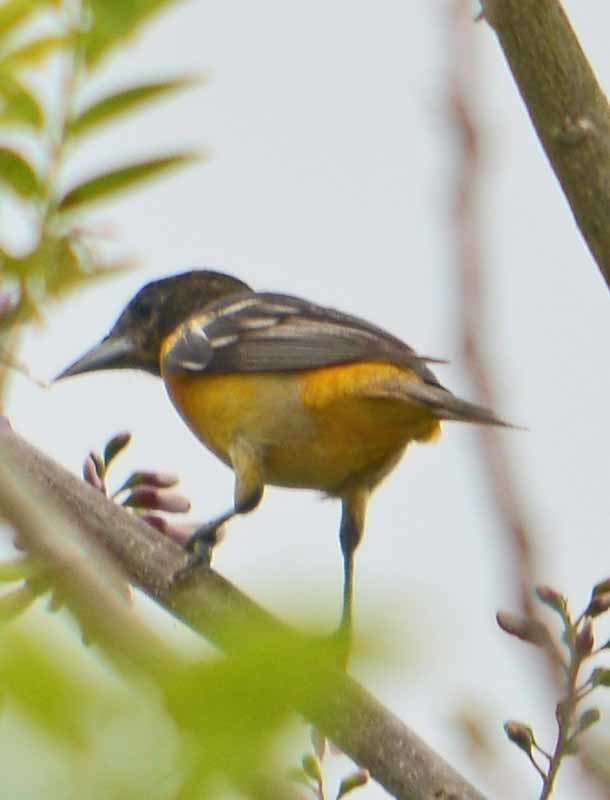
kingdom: Animalia
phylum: Chordata
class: Aves
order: Passeriformes
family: Icteridae
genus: Icterus
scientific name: Icterus galbula
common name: Baltimore oriole
